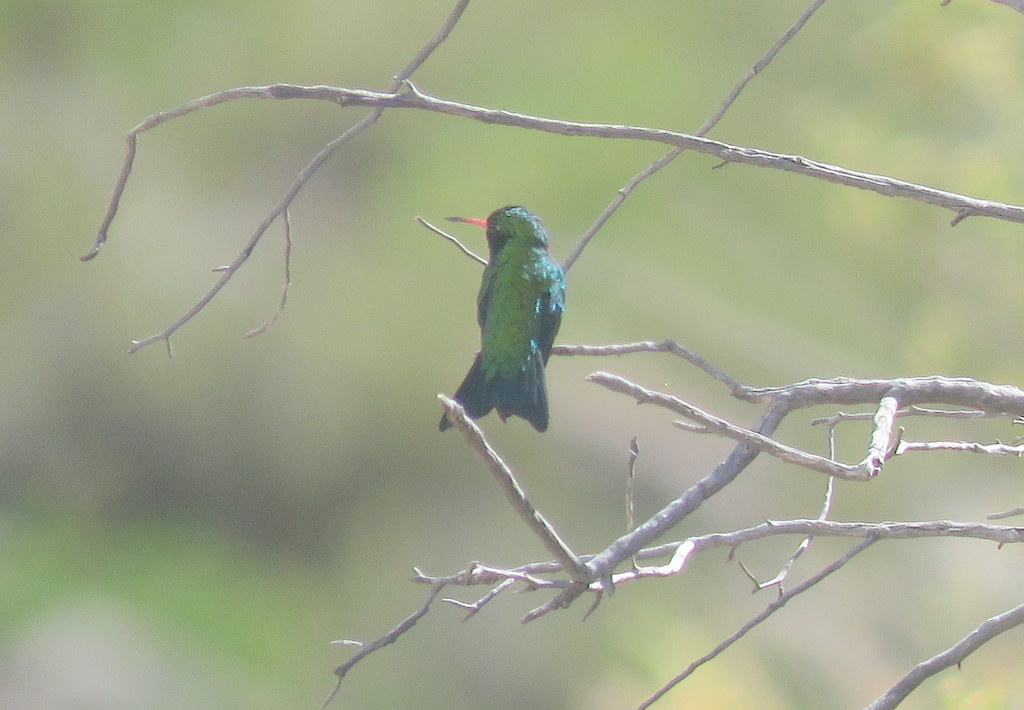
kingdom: Animalia
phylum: Chordata
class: Aves
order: Apodiformes
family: Trochilidae
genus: Chlorostilbon
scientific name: Chlorostilbon lucidus
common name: Glittering-bellied emerald
